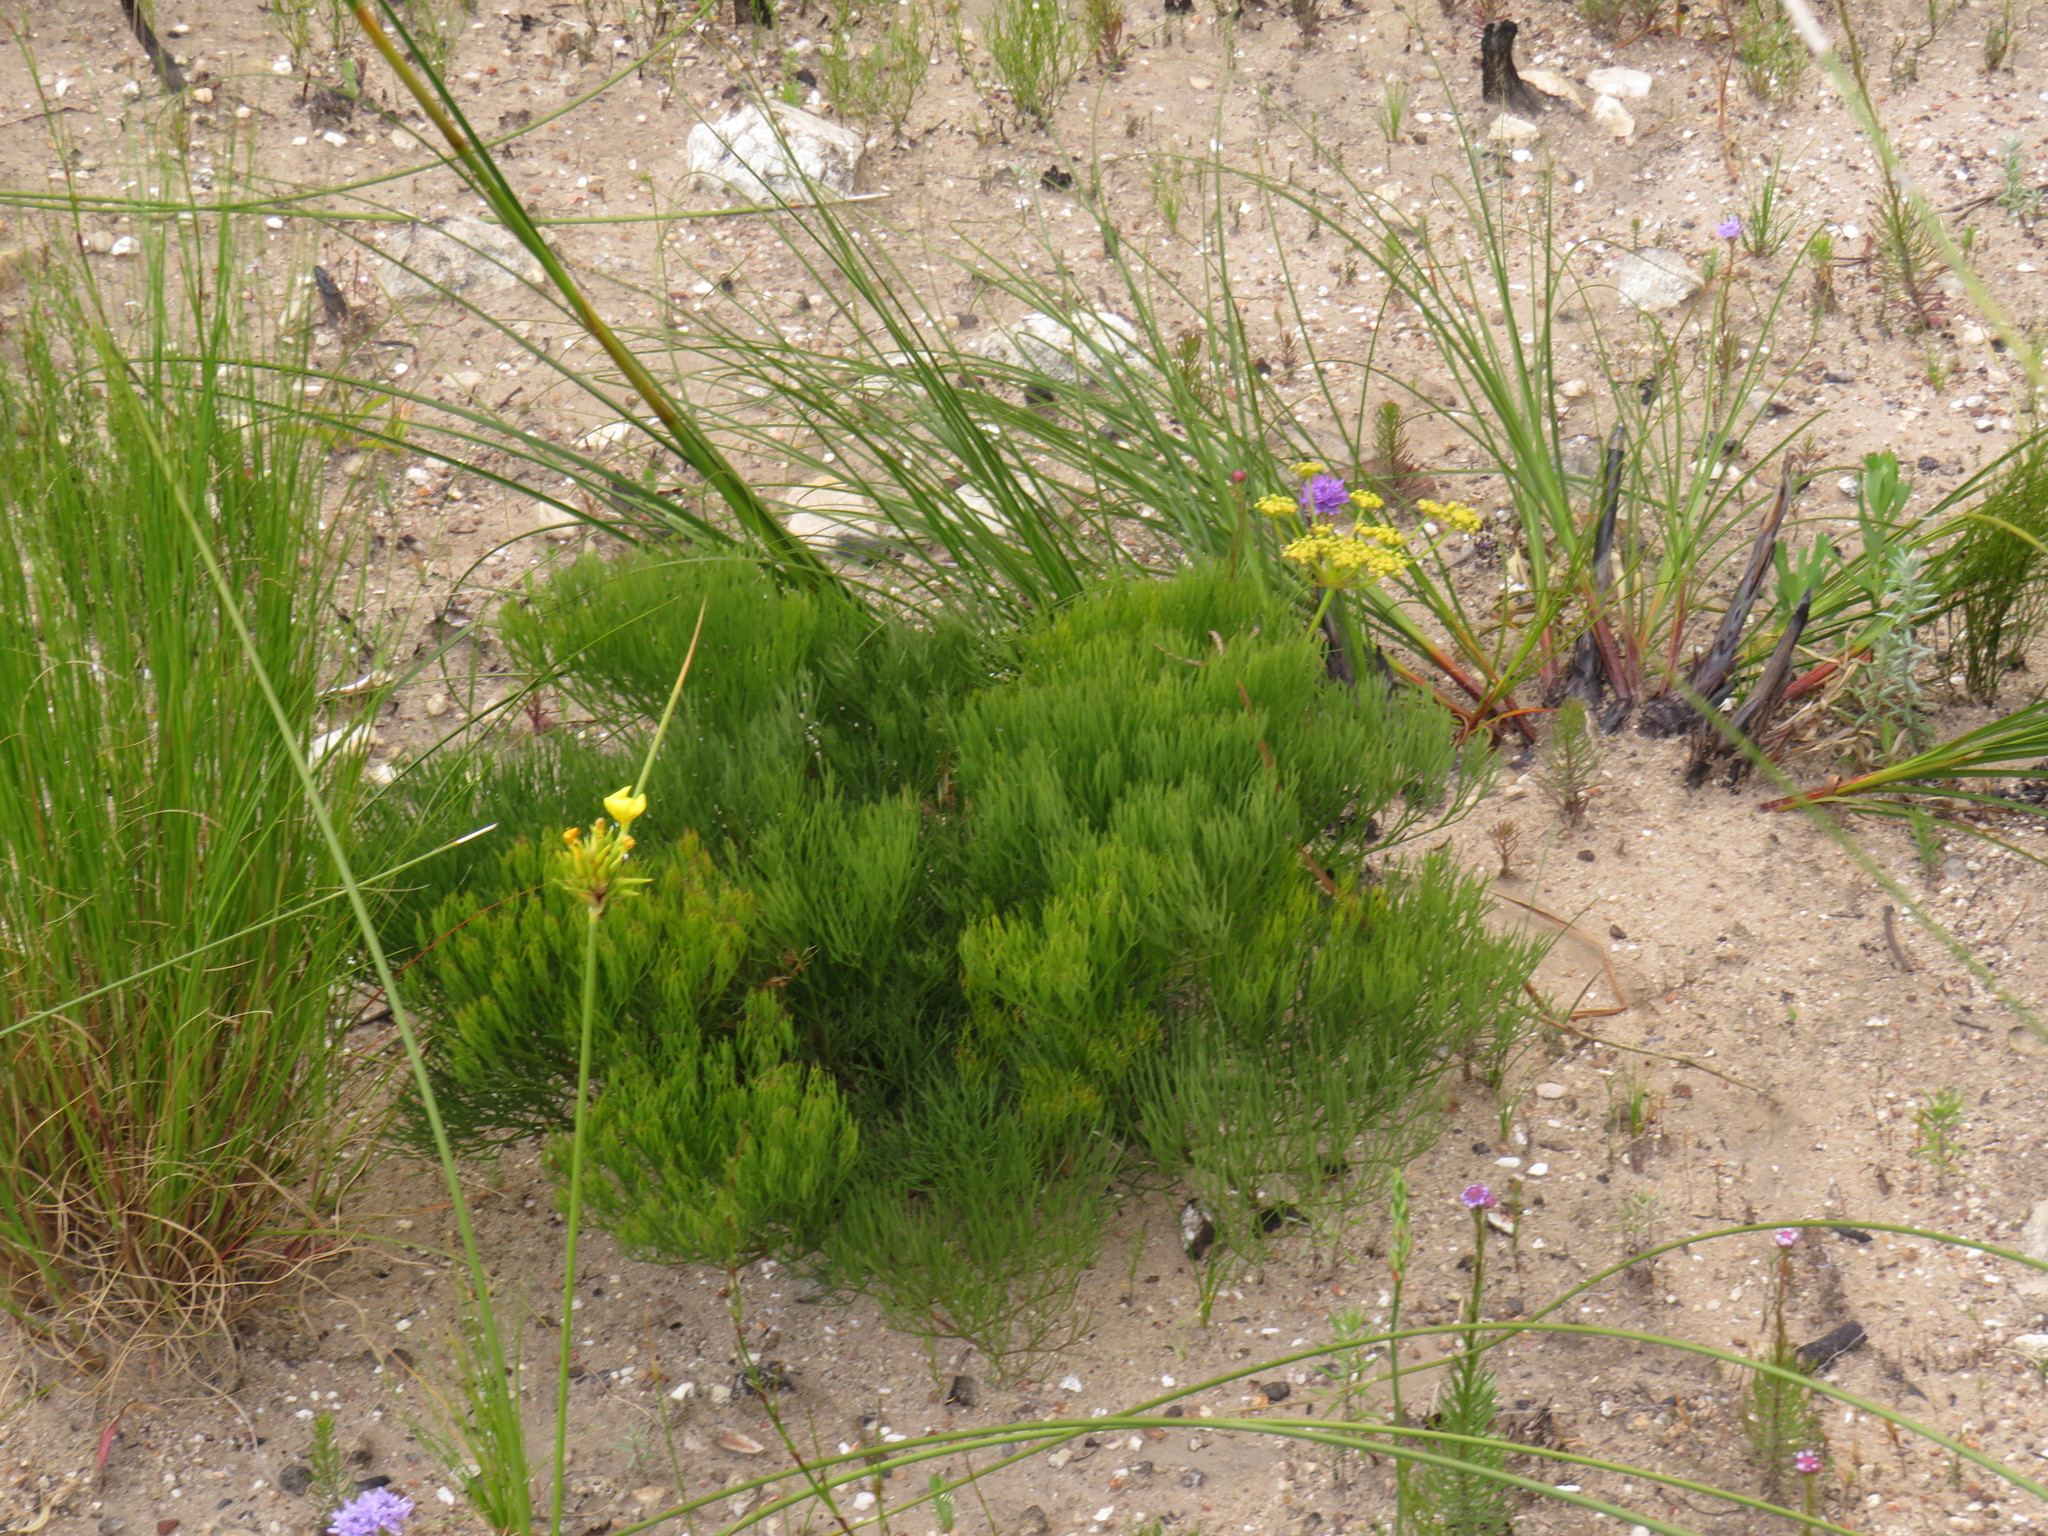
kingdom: Plantae
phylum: Tracheophyta
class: Magnoliopsida
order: Apiales
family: Apiaceae
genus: Nanobubon
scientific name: Nanobubon strictum
